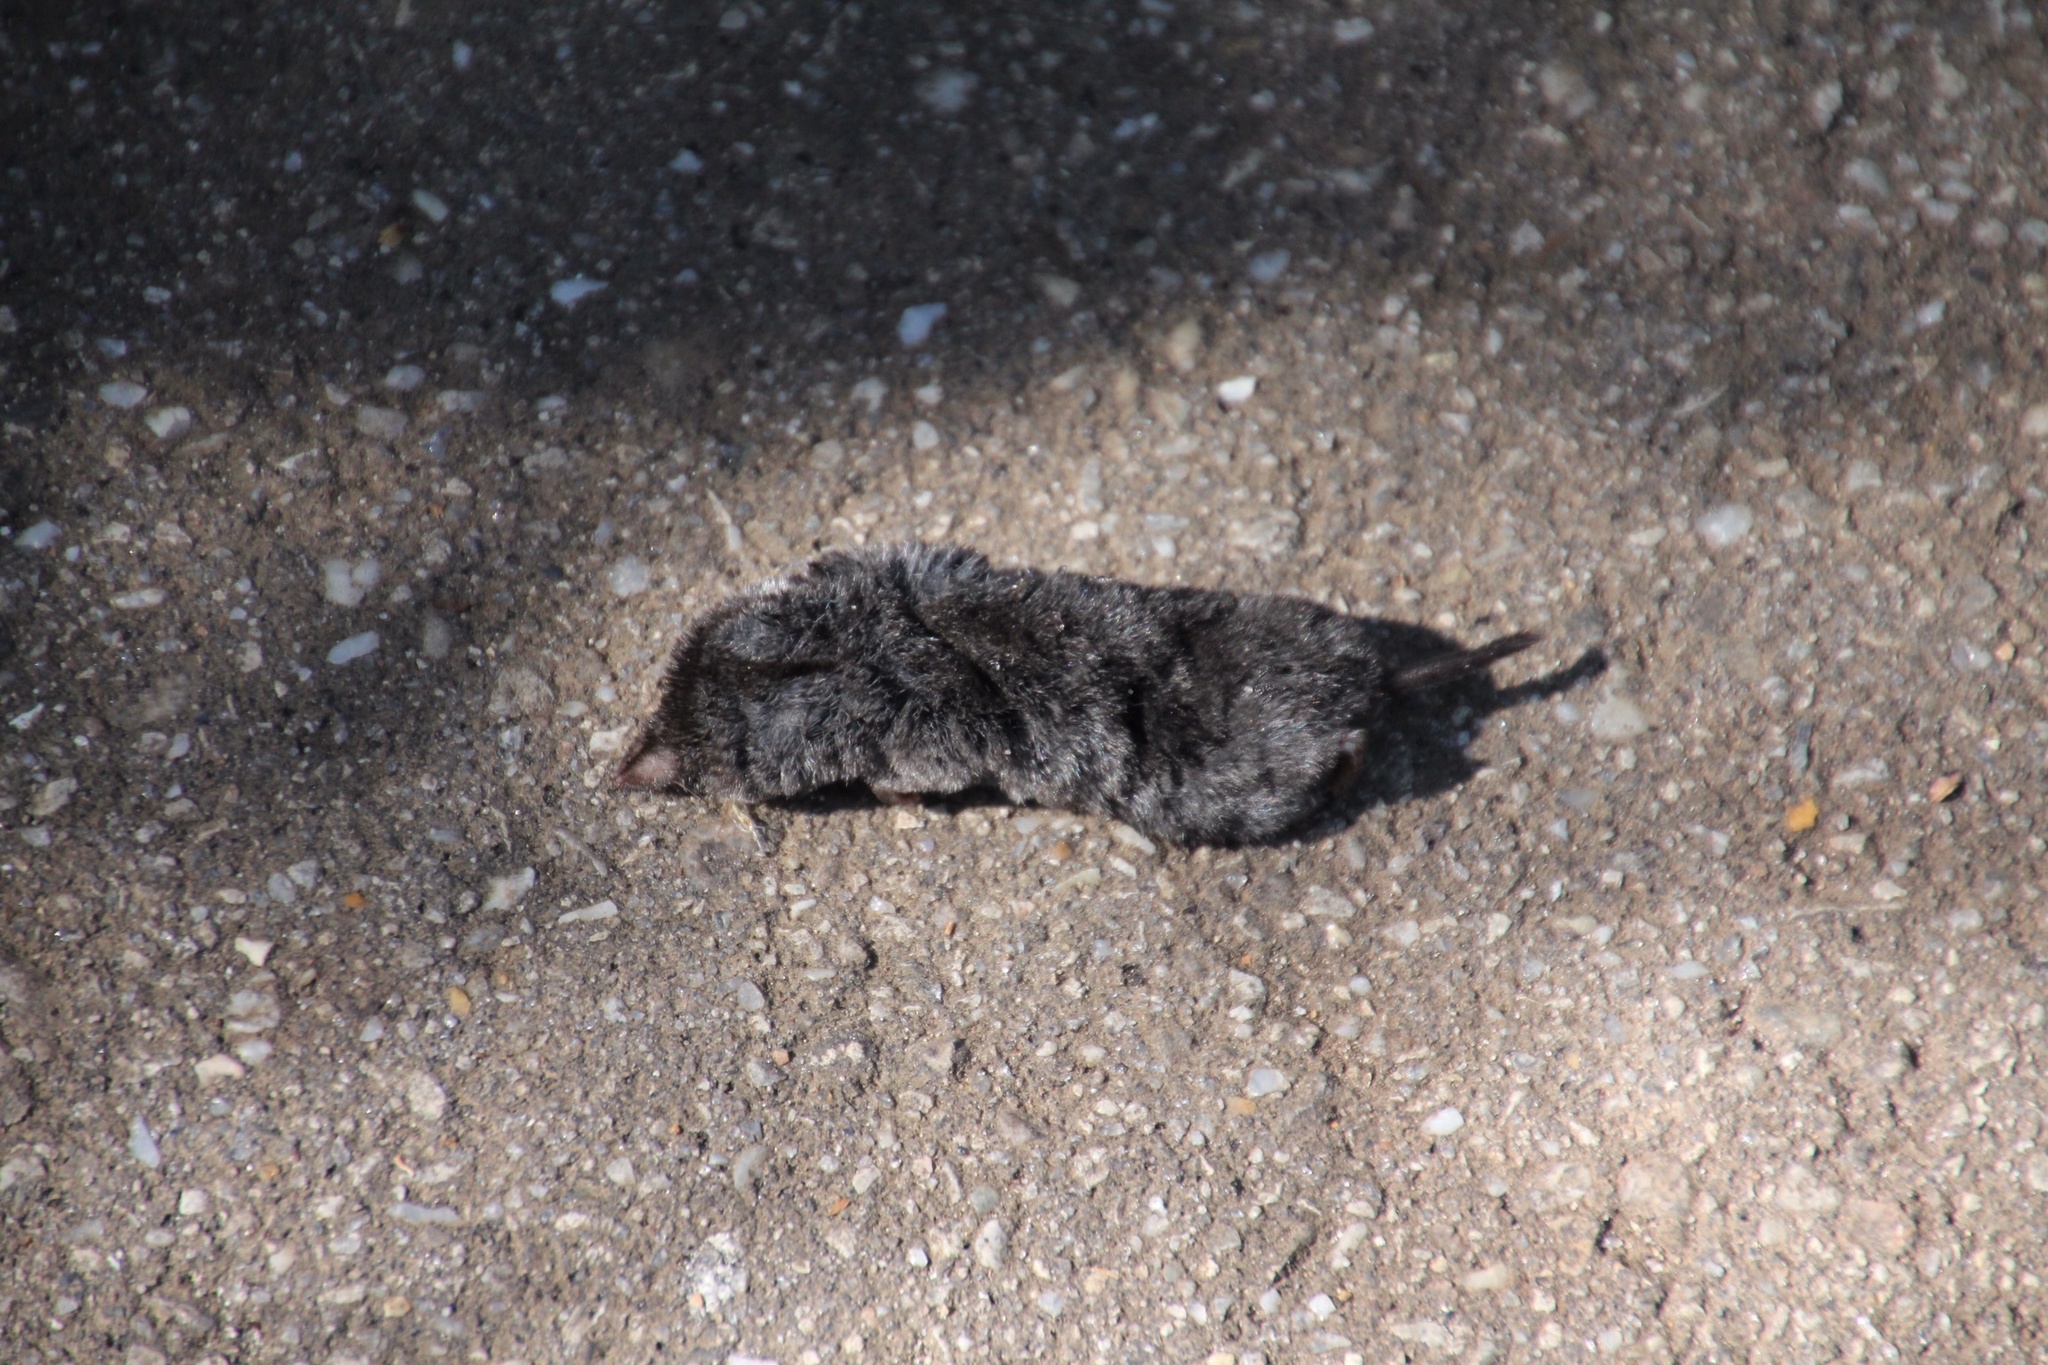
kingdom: Animalia
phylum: Chordata
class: Mammalia
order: Soricomorpha
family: Soricidae
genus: Blarina
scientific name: Blarina carolinensis
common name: Southern short-tailed shrew
